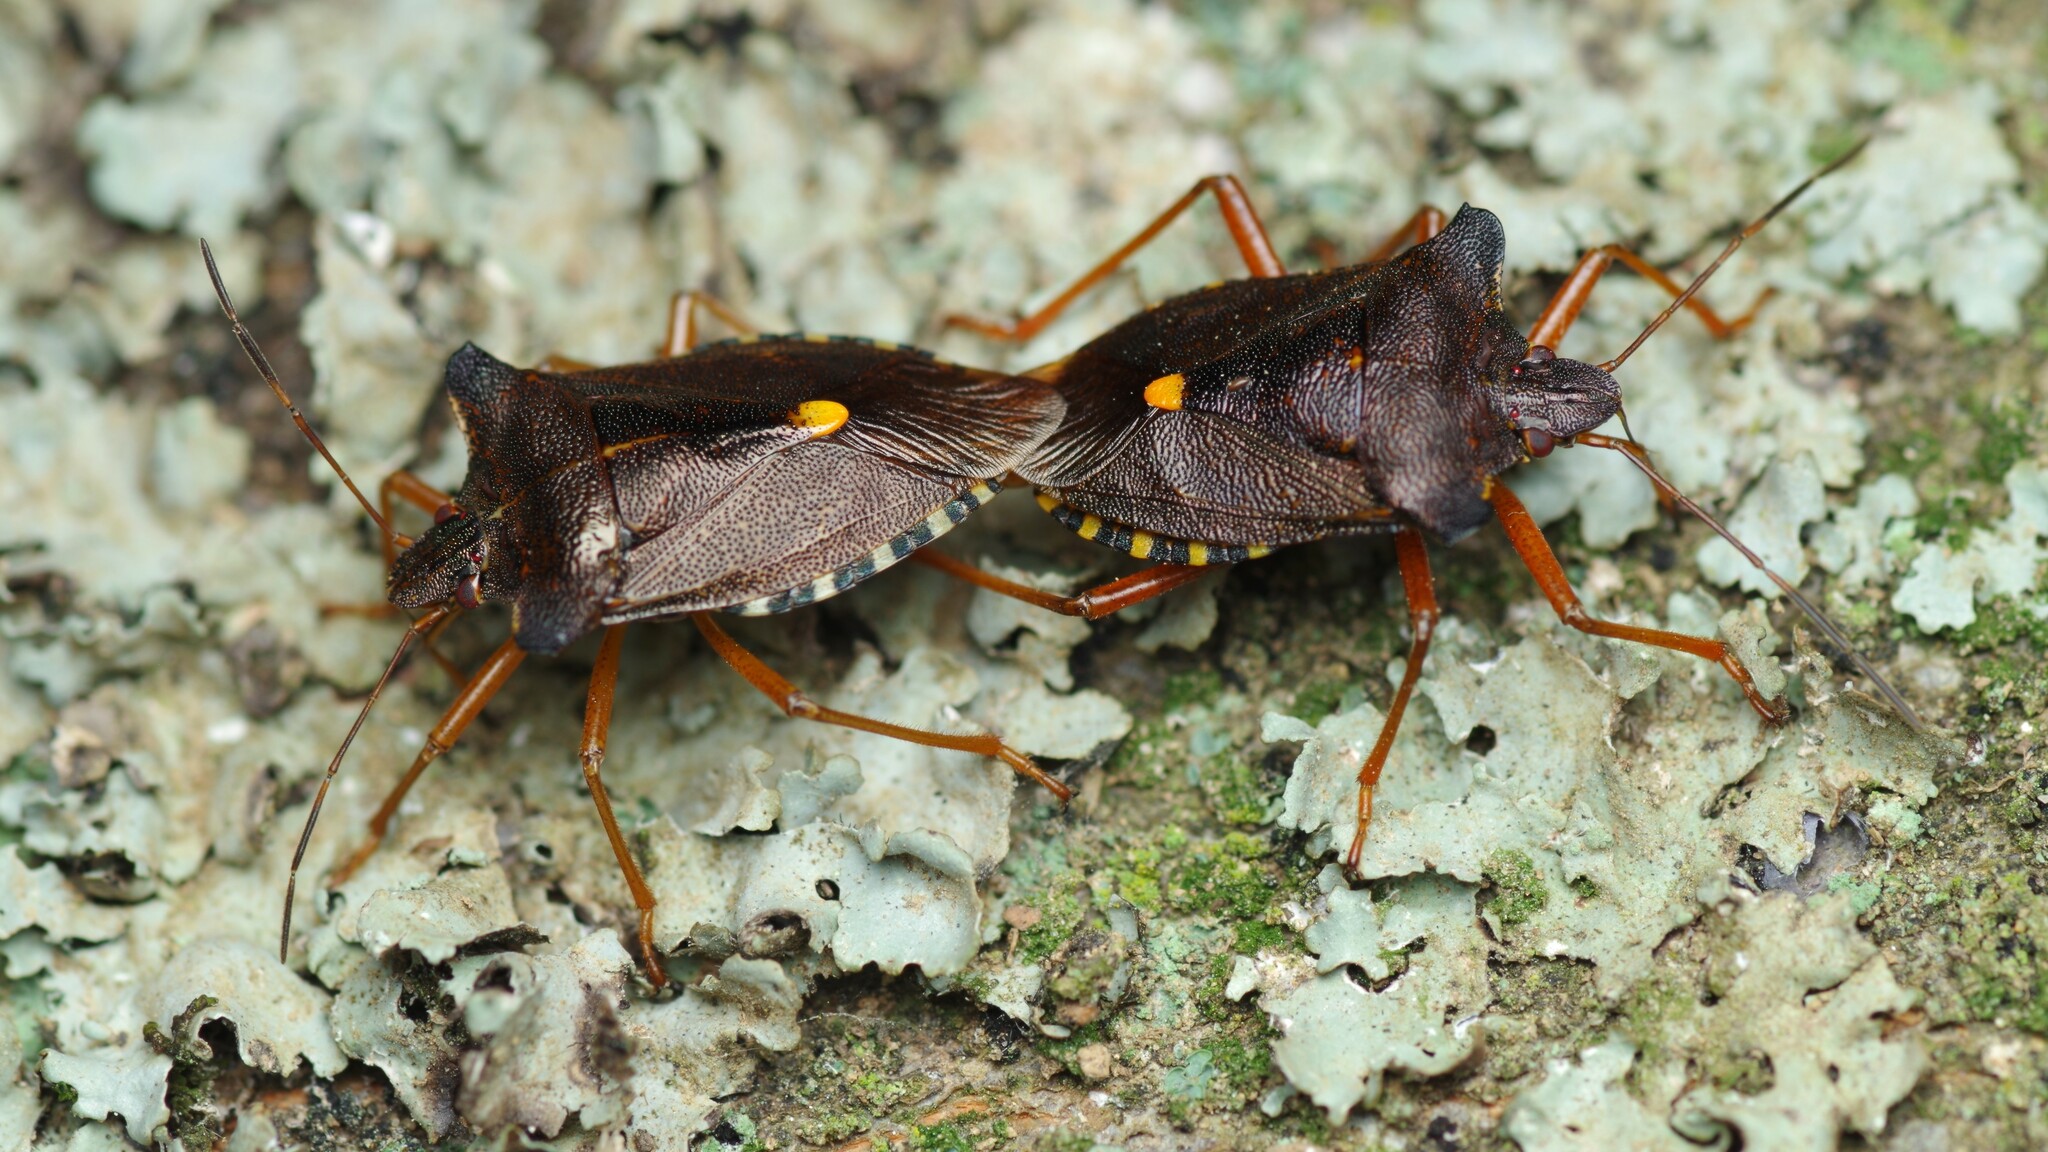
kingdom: Animalia
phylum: Arthropoda
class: Insecta
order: Hemiptera
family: Pentatomidae
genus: Pentatoma
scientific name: Pentatoma rufipes
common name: Forest bug
